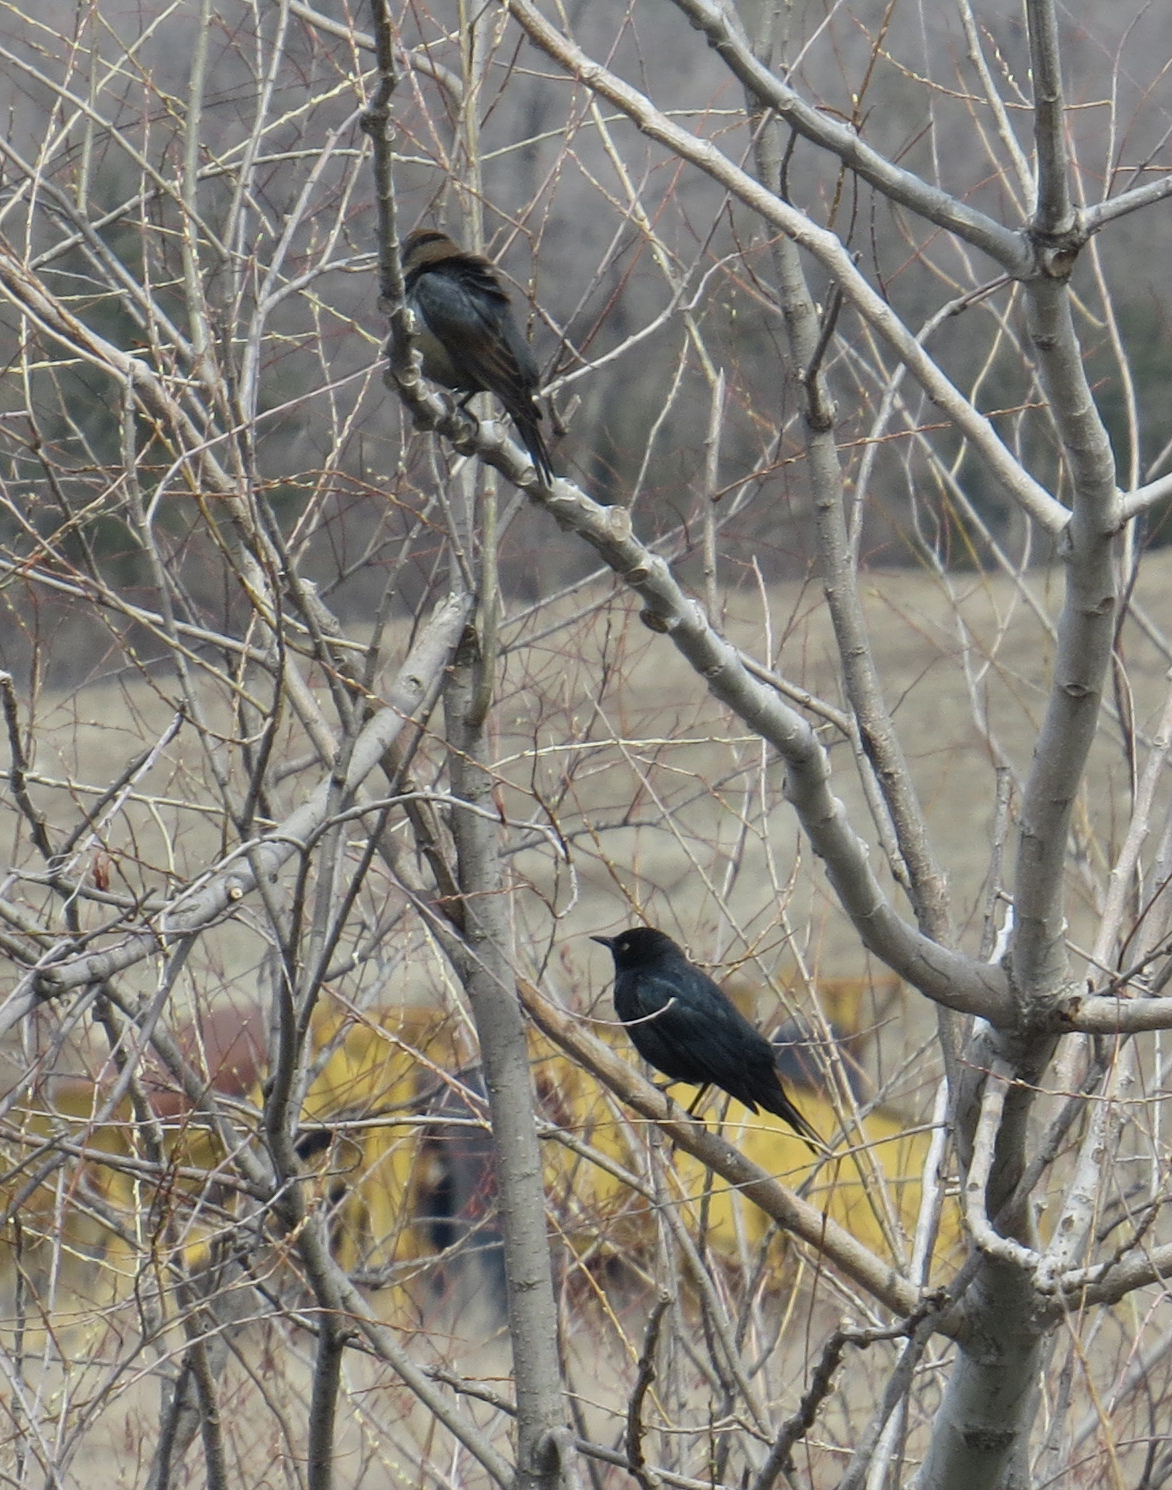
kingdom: Animalia
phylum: Chordata
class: Aves
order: Passeriformes
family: Icteridae
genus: Euphagus
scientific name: Euphagus carolinus
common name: Rusty blackbird
